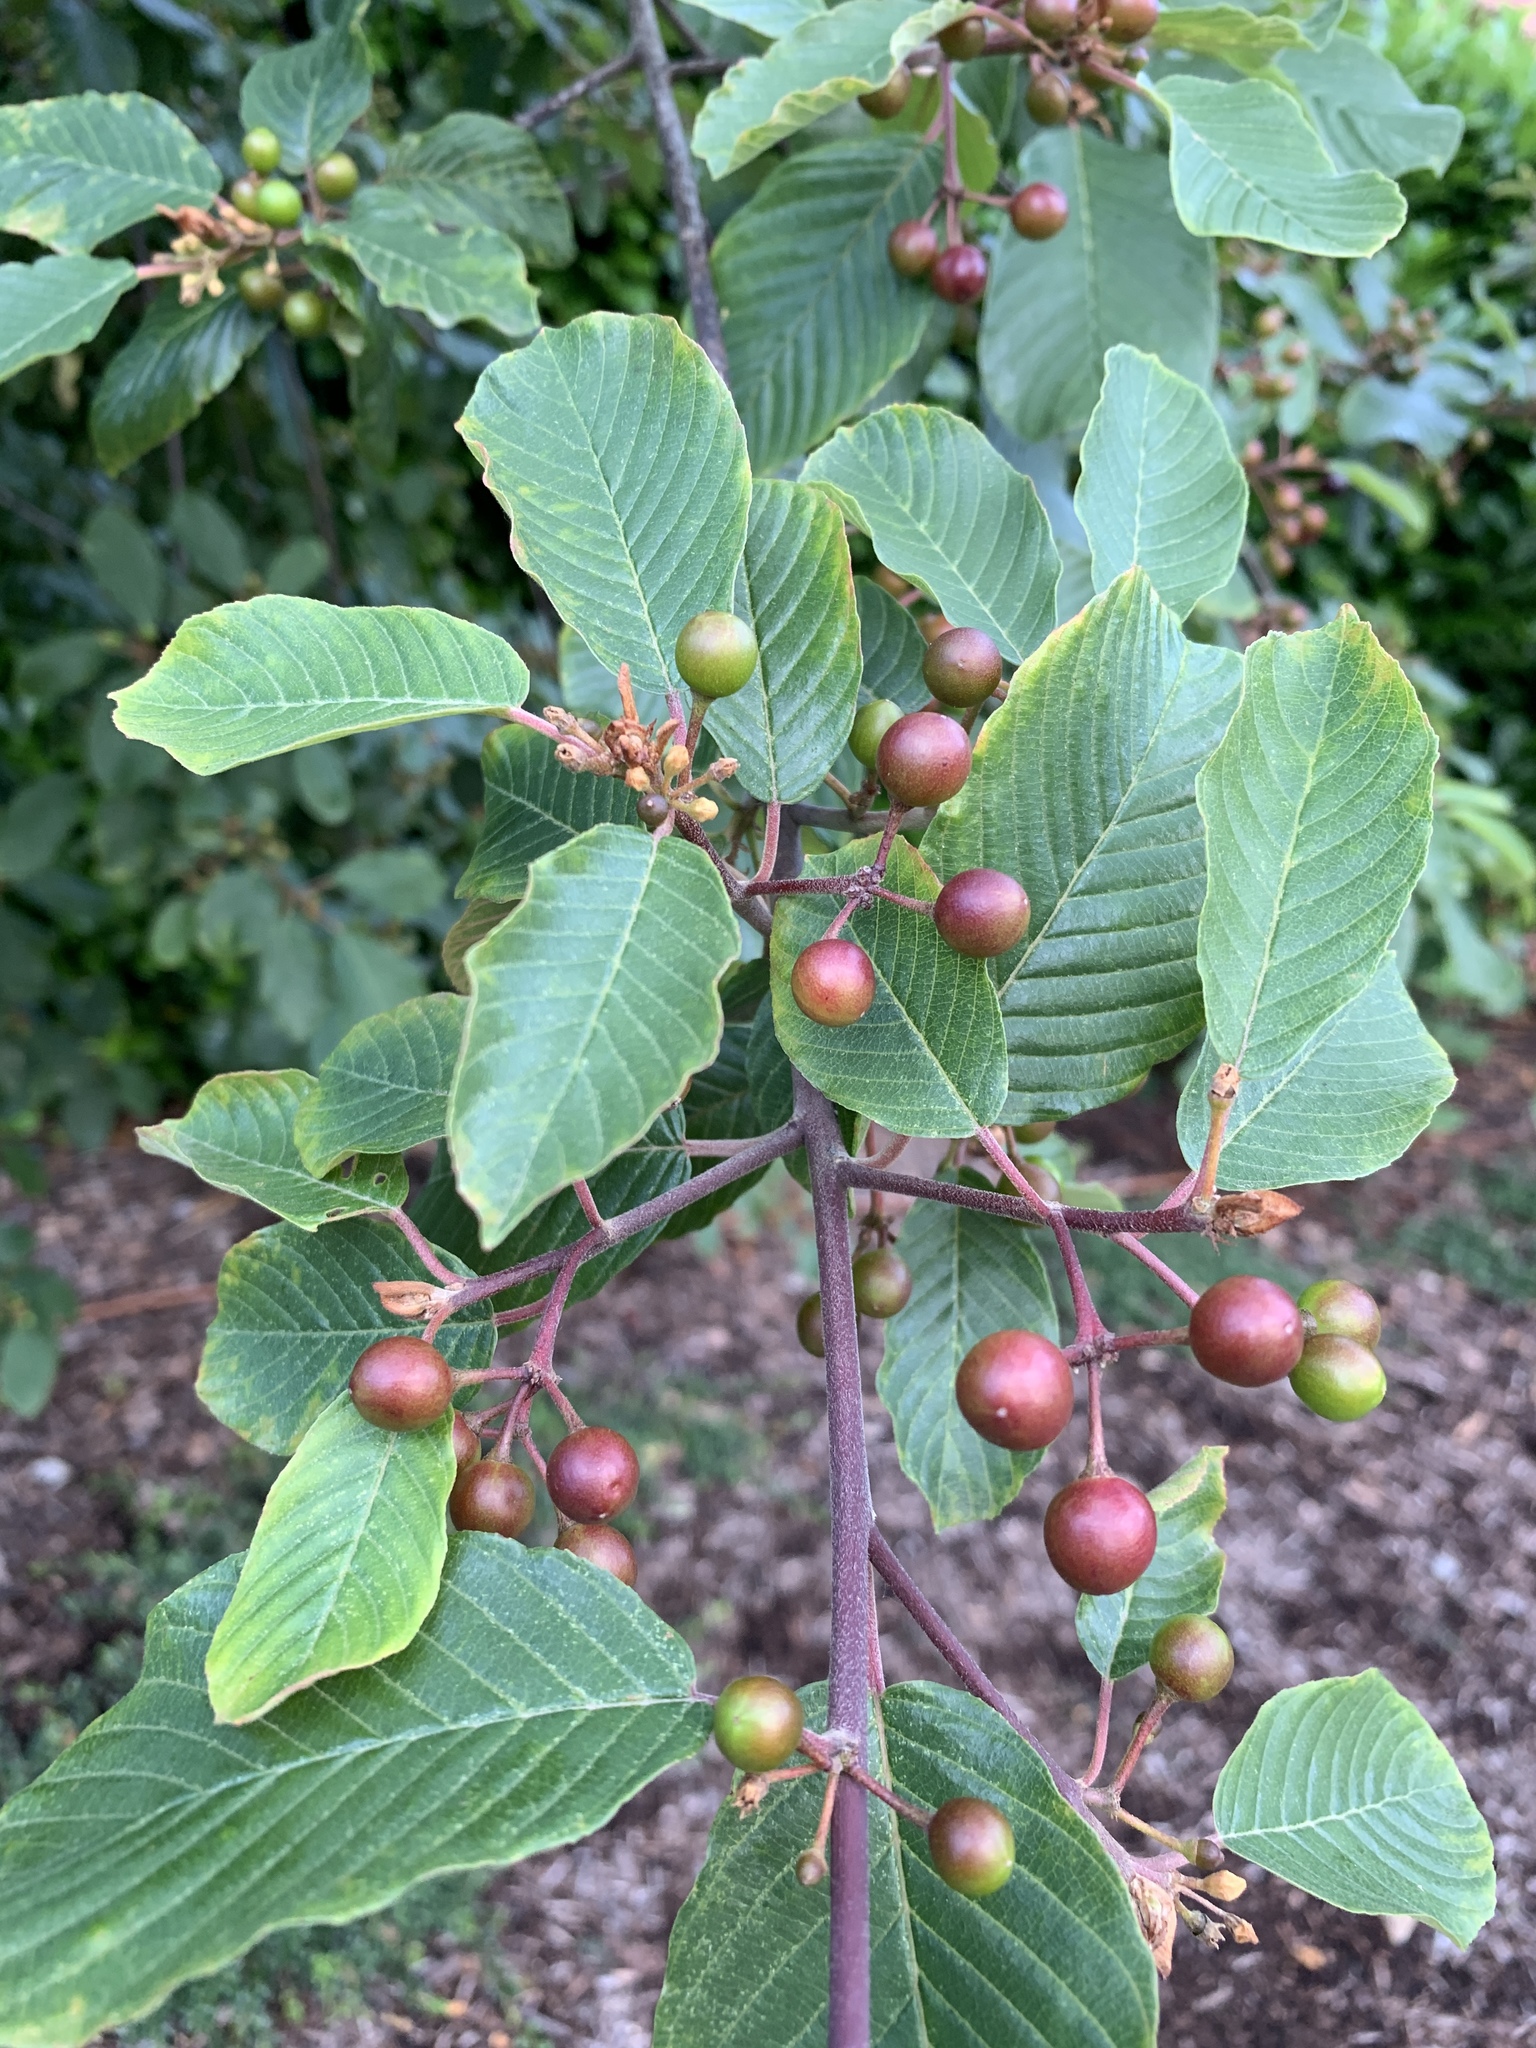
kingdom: Plantae
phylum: Tracheophyta
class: Magnoliopsida
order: Rosales
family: Rhamnaceae
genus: Frangula
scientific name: Frangula purshiana
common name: Cascara buckthorn
